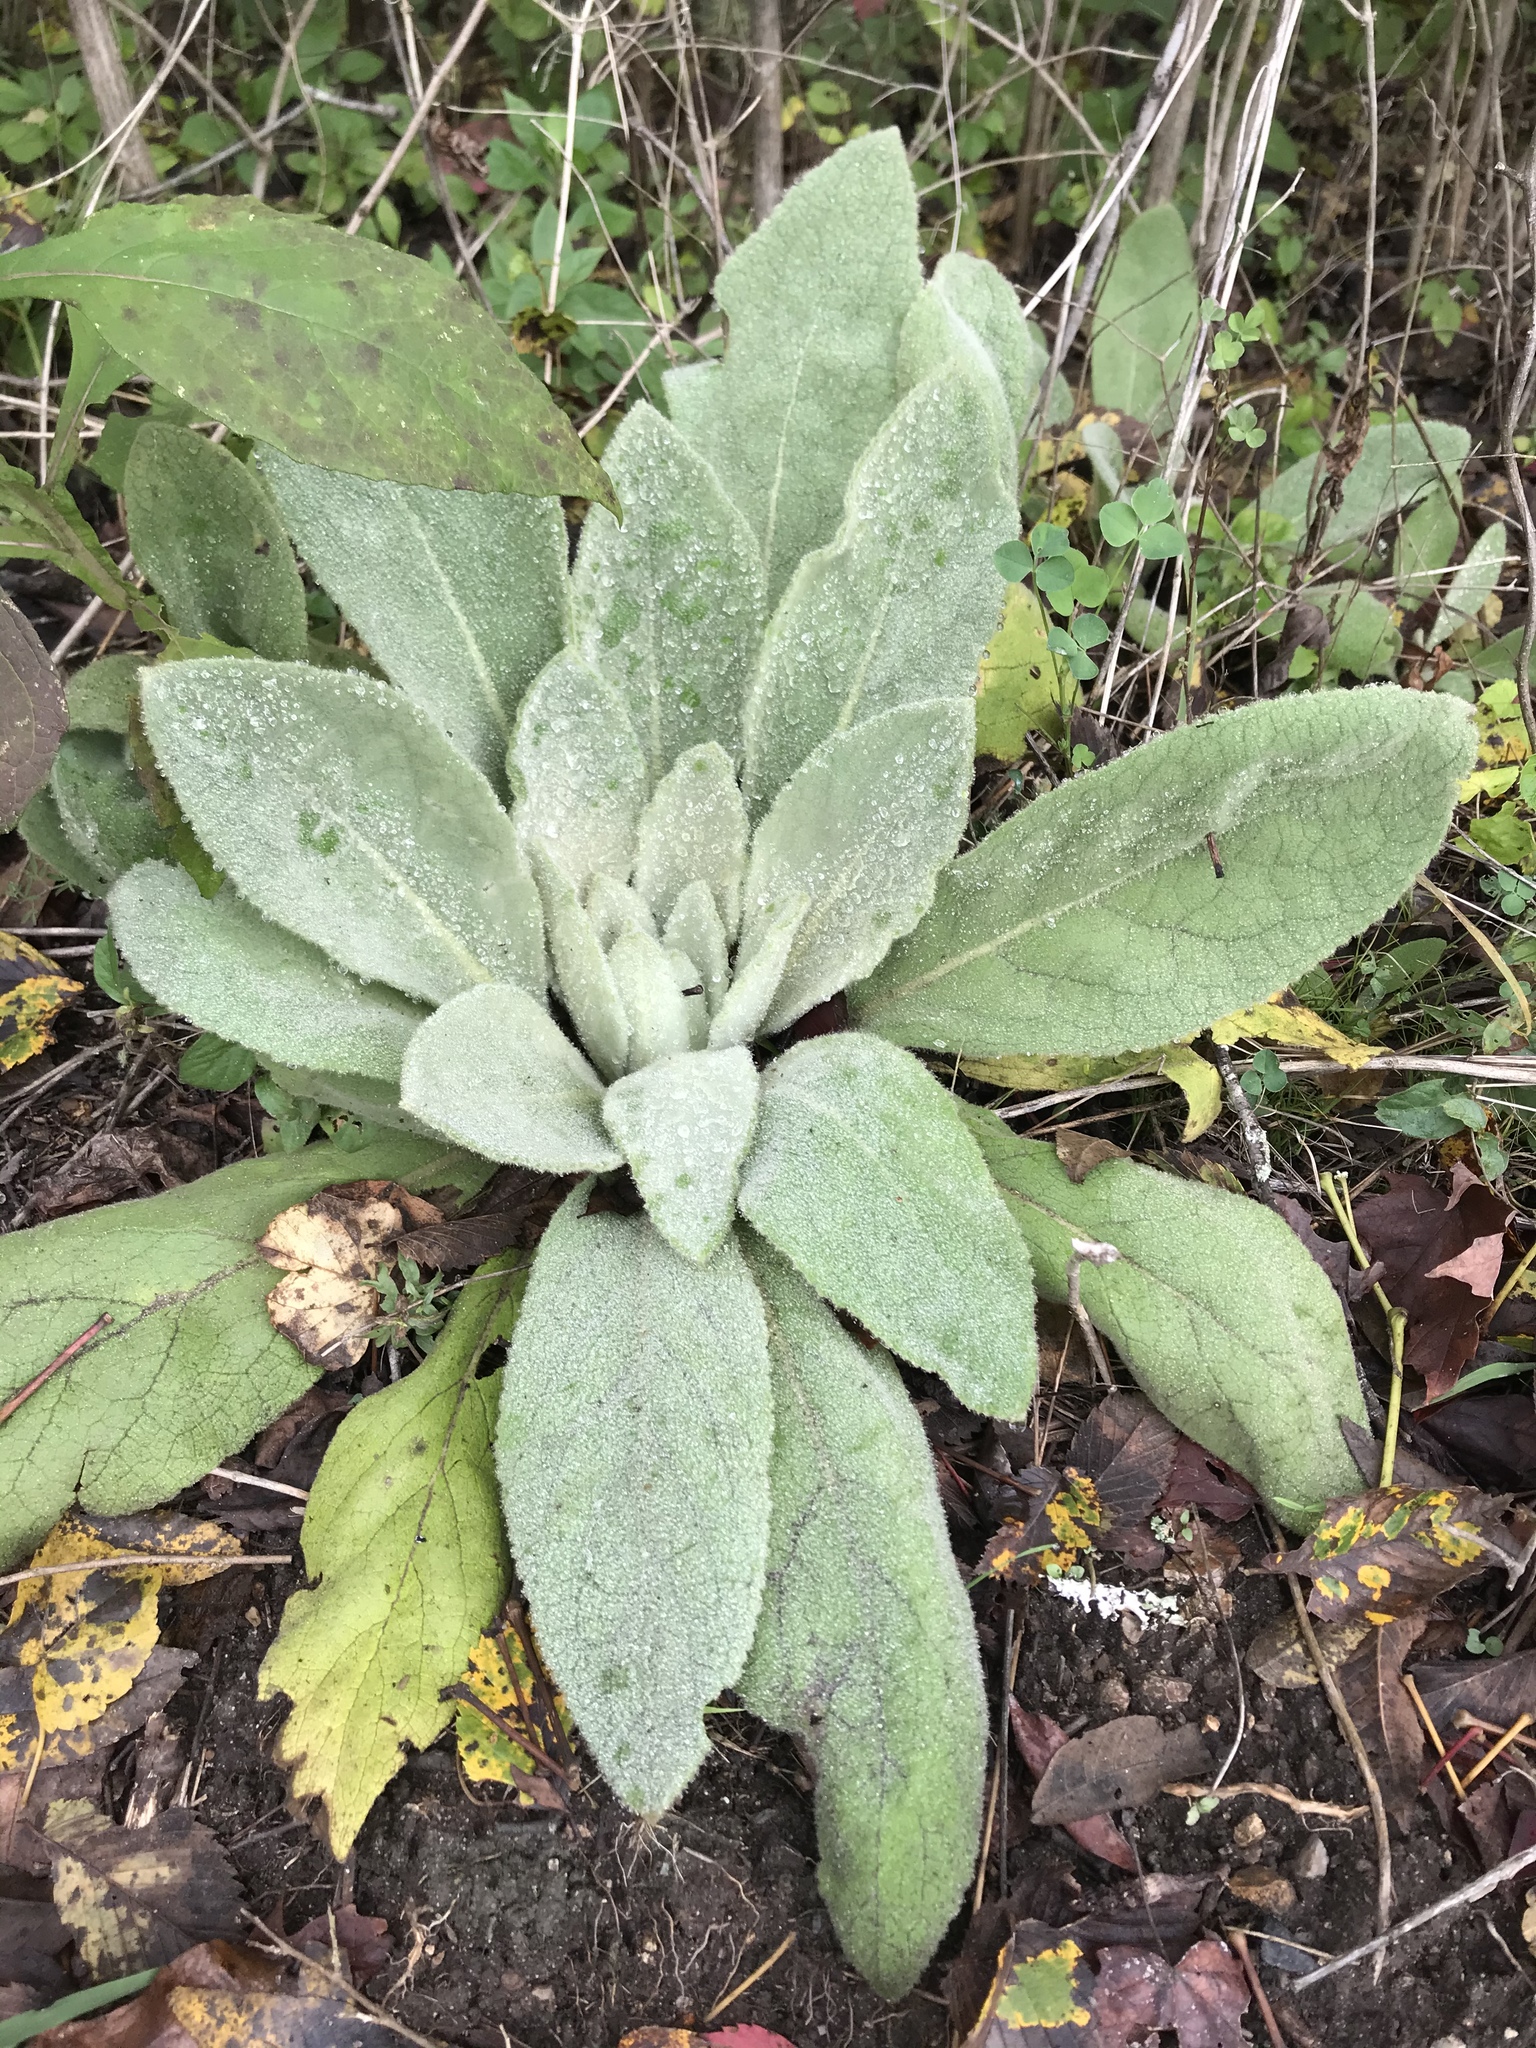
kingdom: Plantae
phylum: Tracheophyta
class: Magnoliopsida
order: Lamiales
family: Scrophulariaceae
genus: Verbascum
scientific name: Verbascum thapsus
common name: Common mullein
